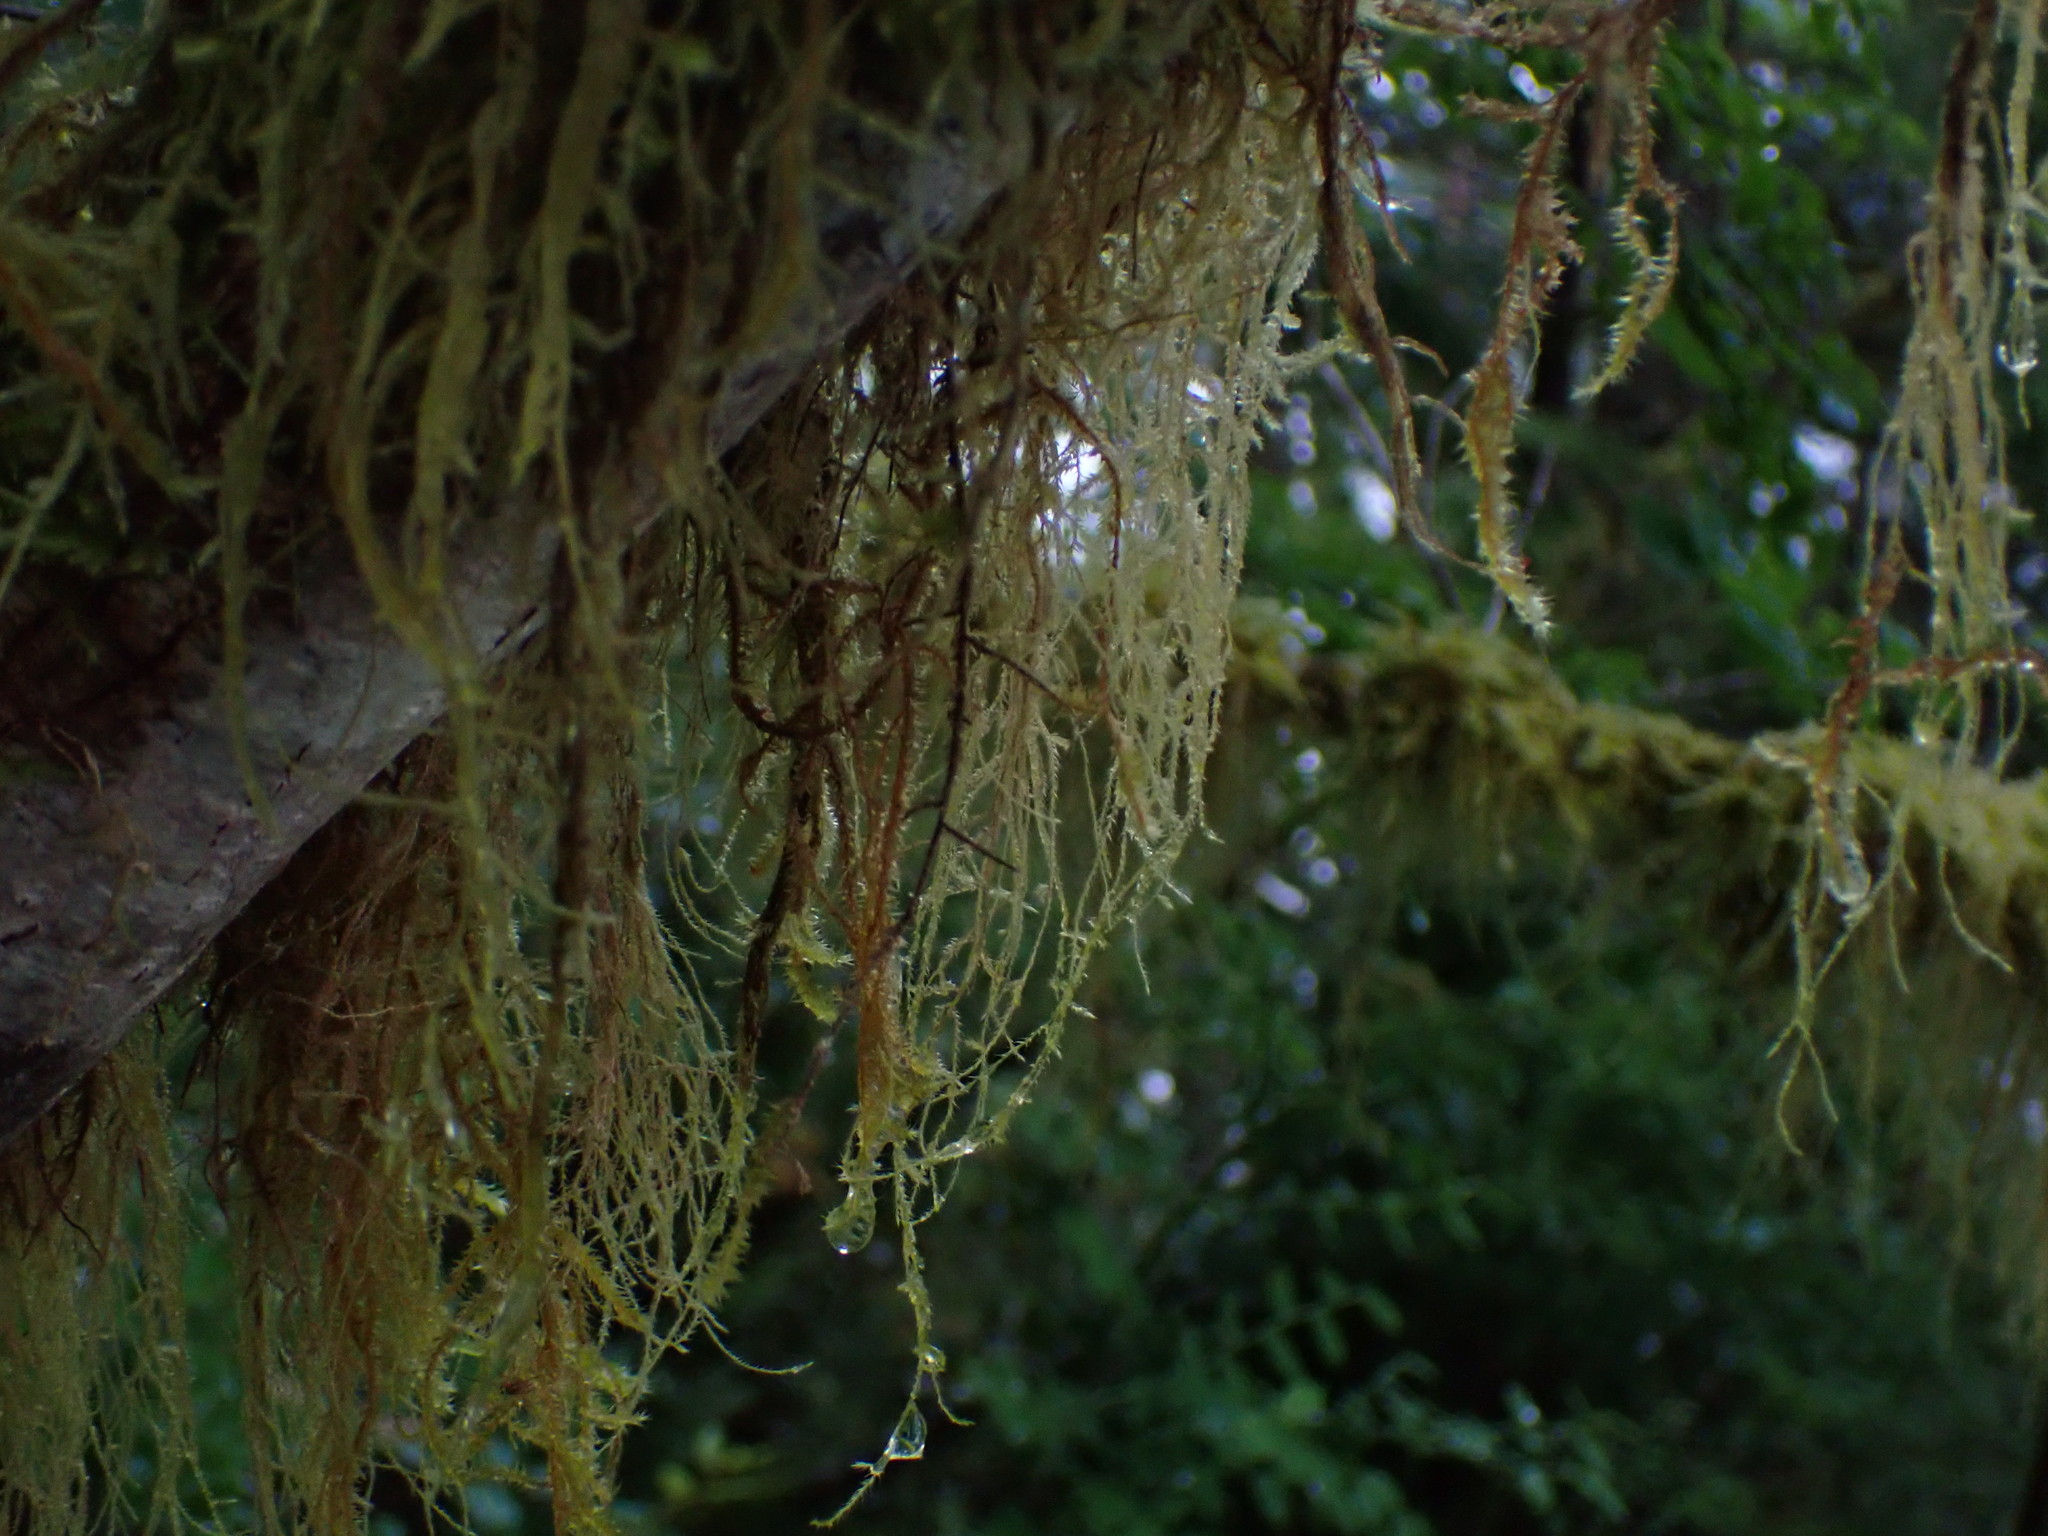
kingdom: Plantae
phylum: Bryophyta
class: Bryopsida
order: Hypnales
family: Lembophyllaceae
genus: Pseudisothecium
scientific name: Pseudisothecium stoloniferum
